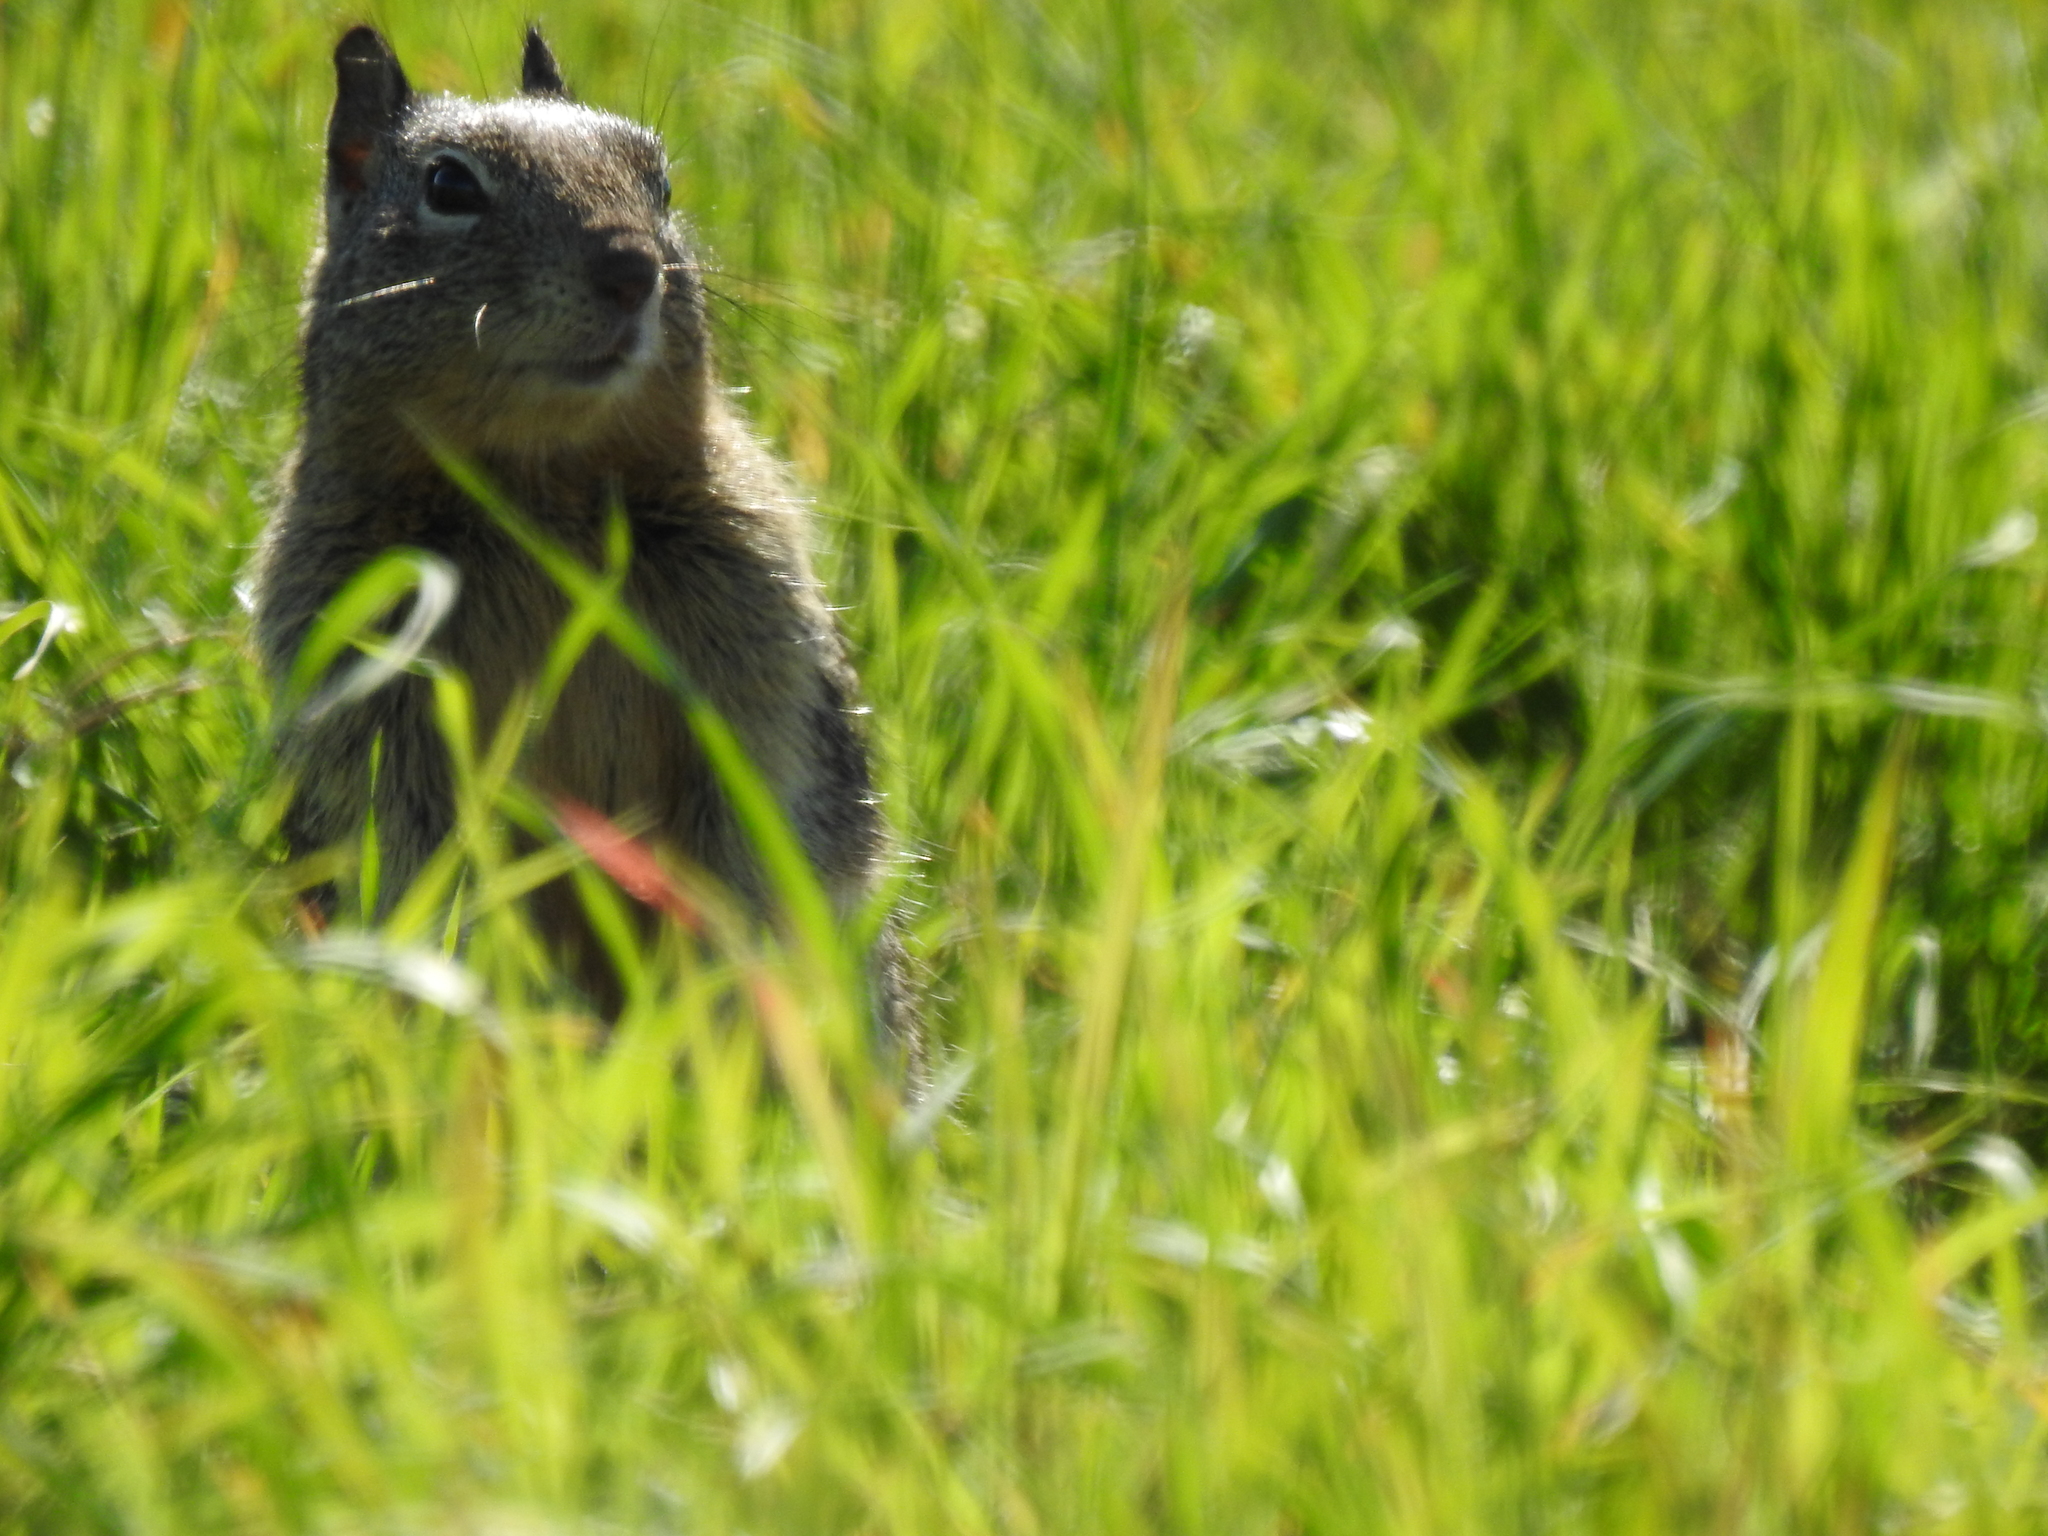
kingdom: Animalia
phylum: Chordata
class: Mammalia
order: Rodentia
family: Sciuridae
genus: Otospermophilus
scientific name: Otospermophilus beecheyi
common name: California ground squirrel
